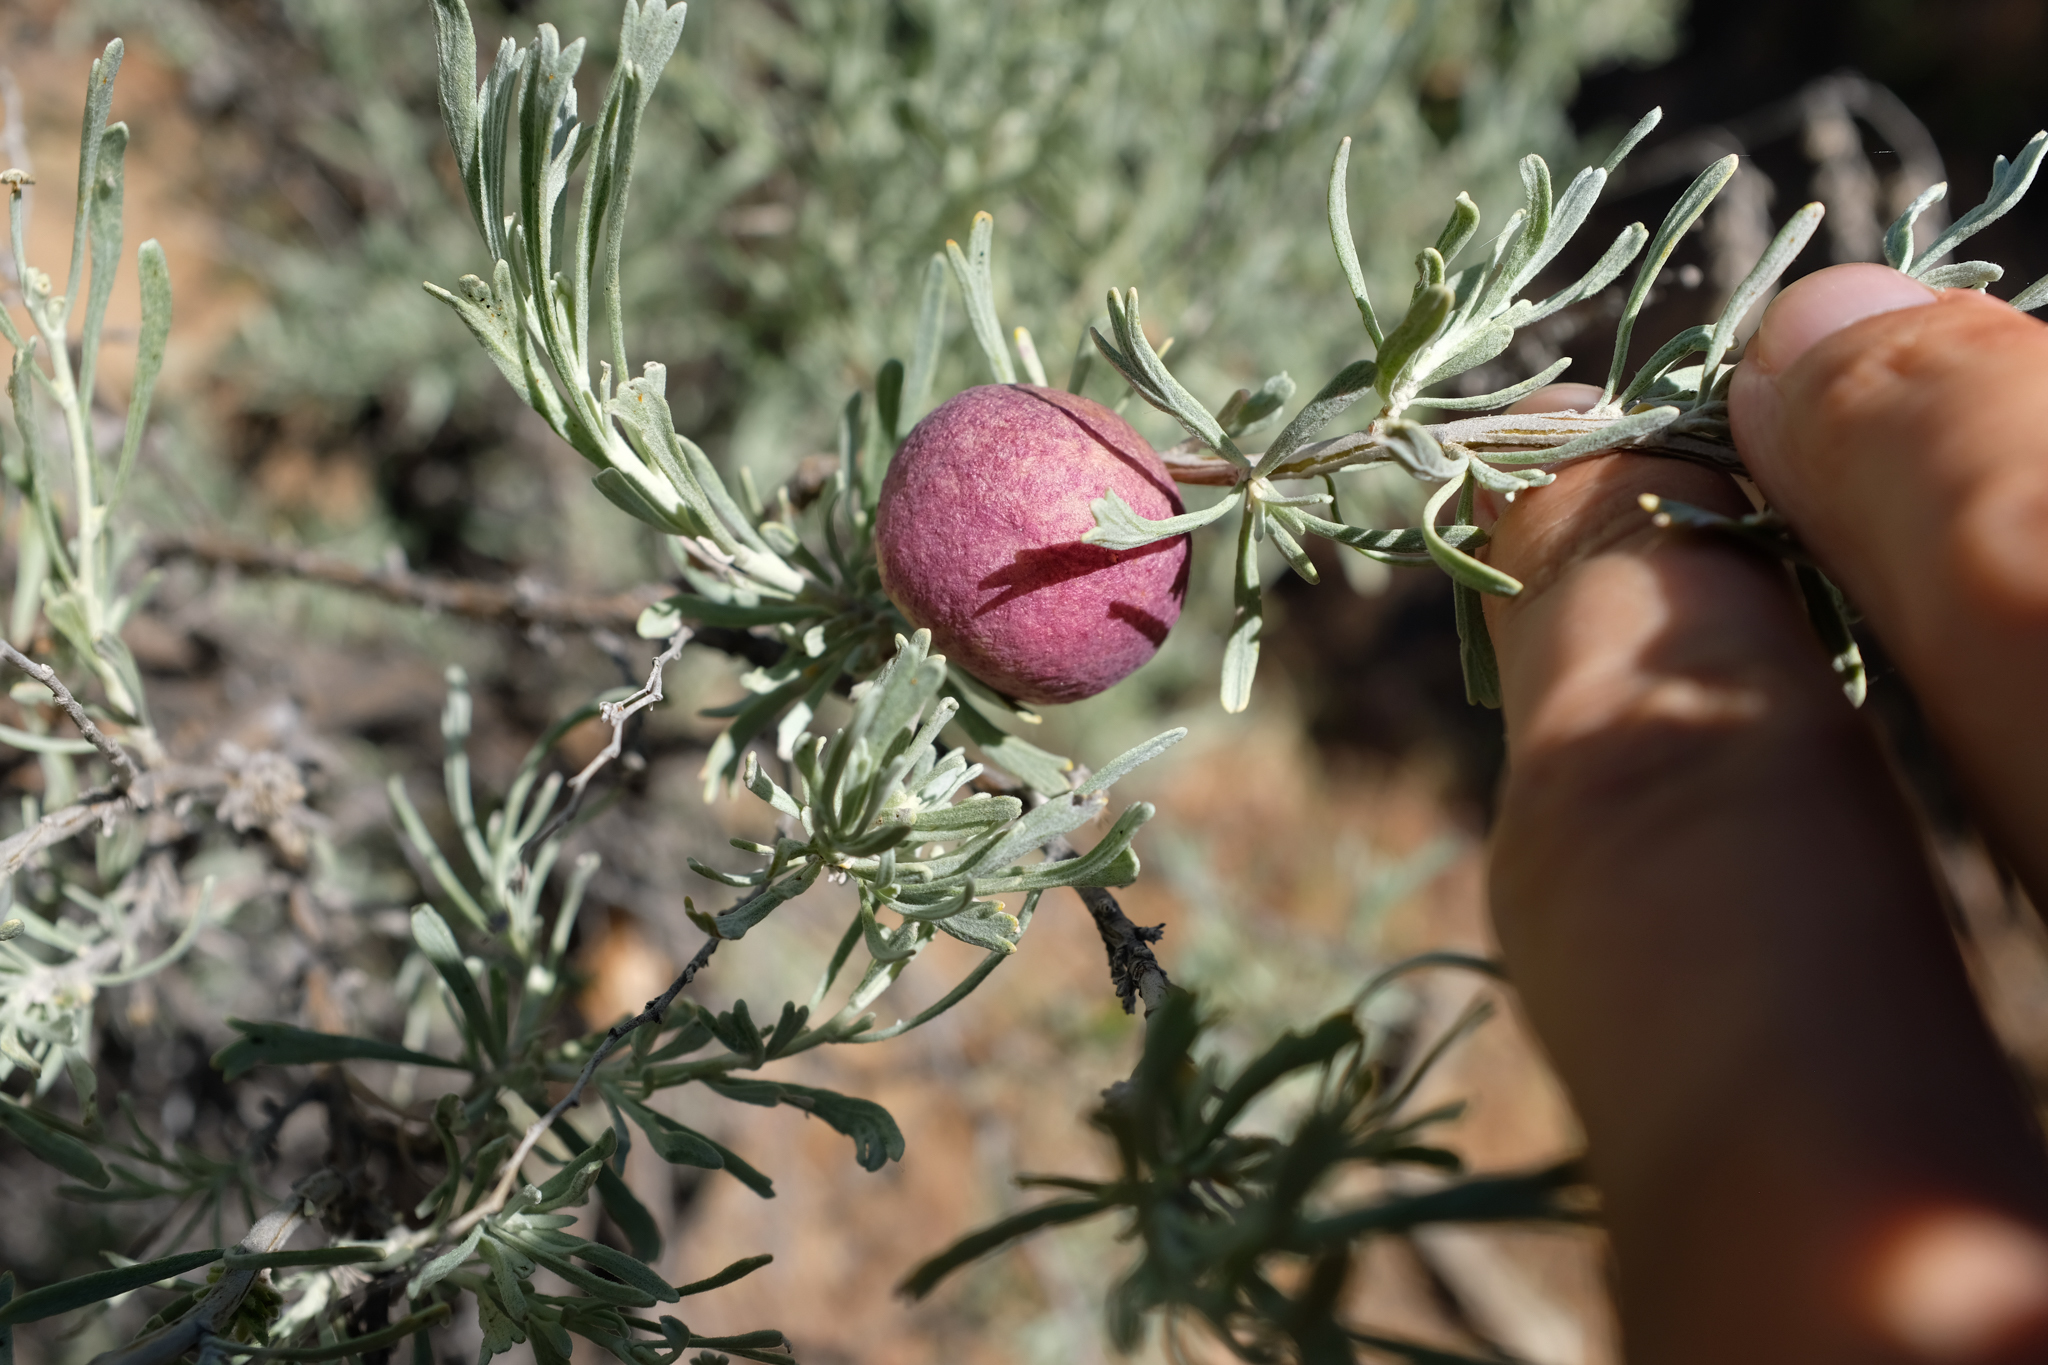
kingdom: Animalia
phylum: Arthropoda
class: Insecta
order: Diptera
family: Cecidomyiidae
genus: Rhopalomyia
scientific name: Rhopalomyia calvipomum
